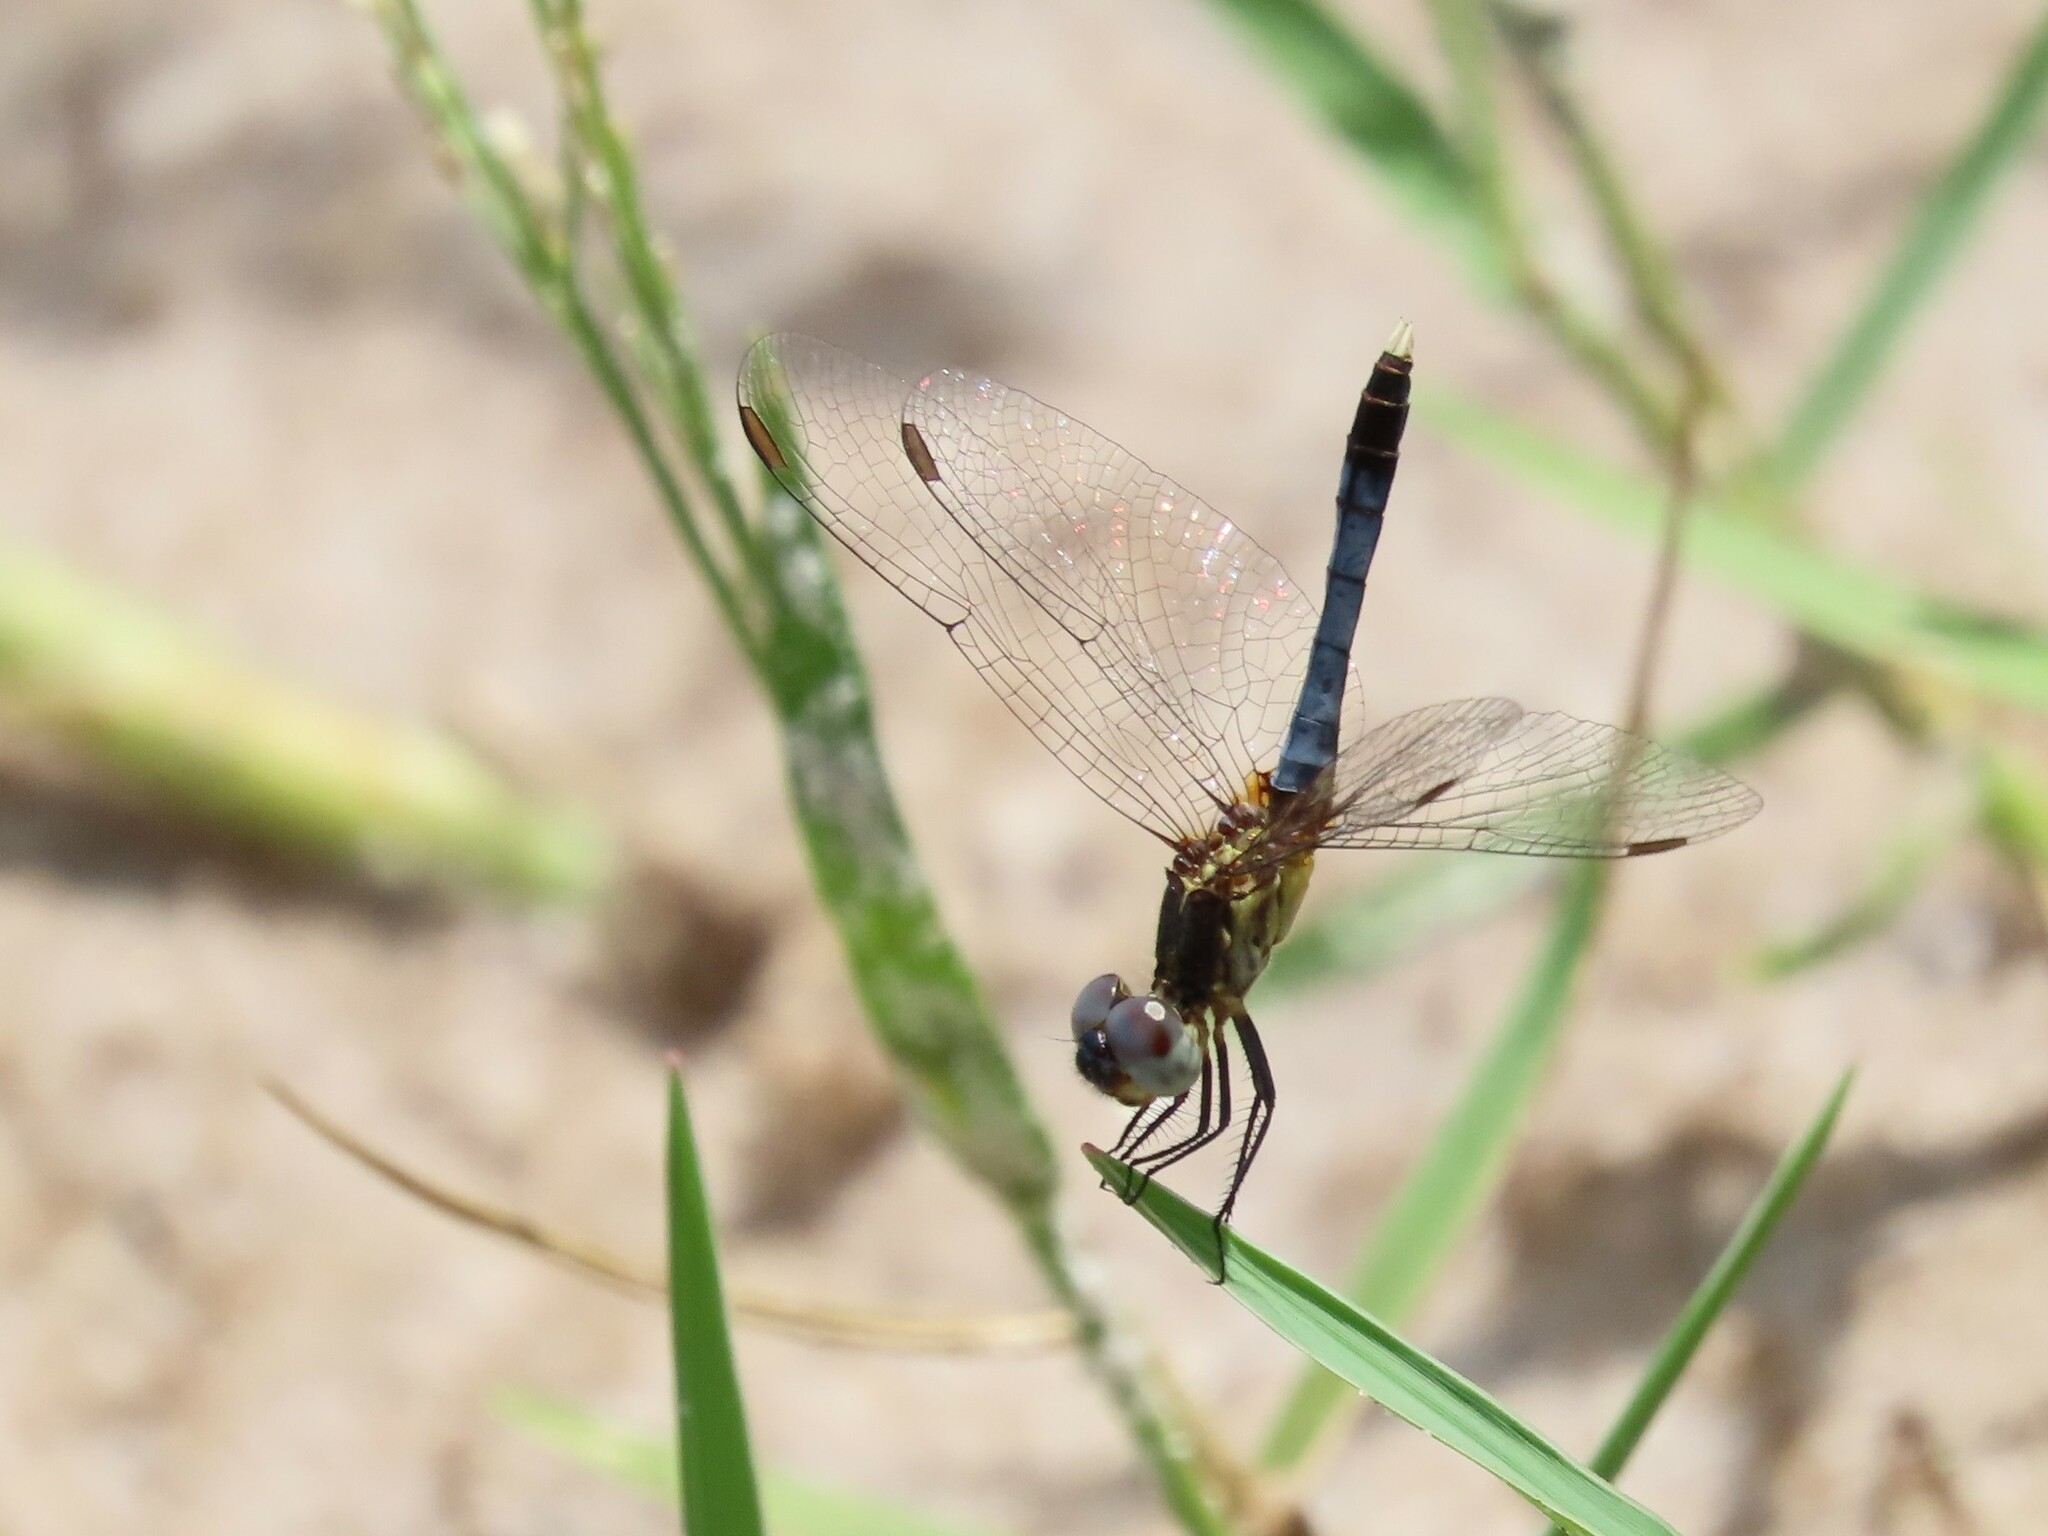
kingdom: Animalia
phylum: Arthropoda
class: Insecta
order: Odonata
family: Libellulidae
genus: Erythrodiplax
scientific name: Erythrodiplax minuscula
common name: Little blue dragonlet
